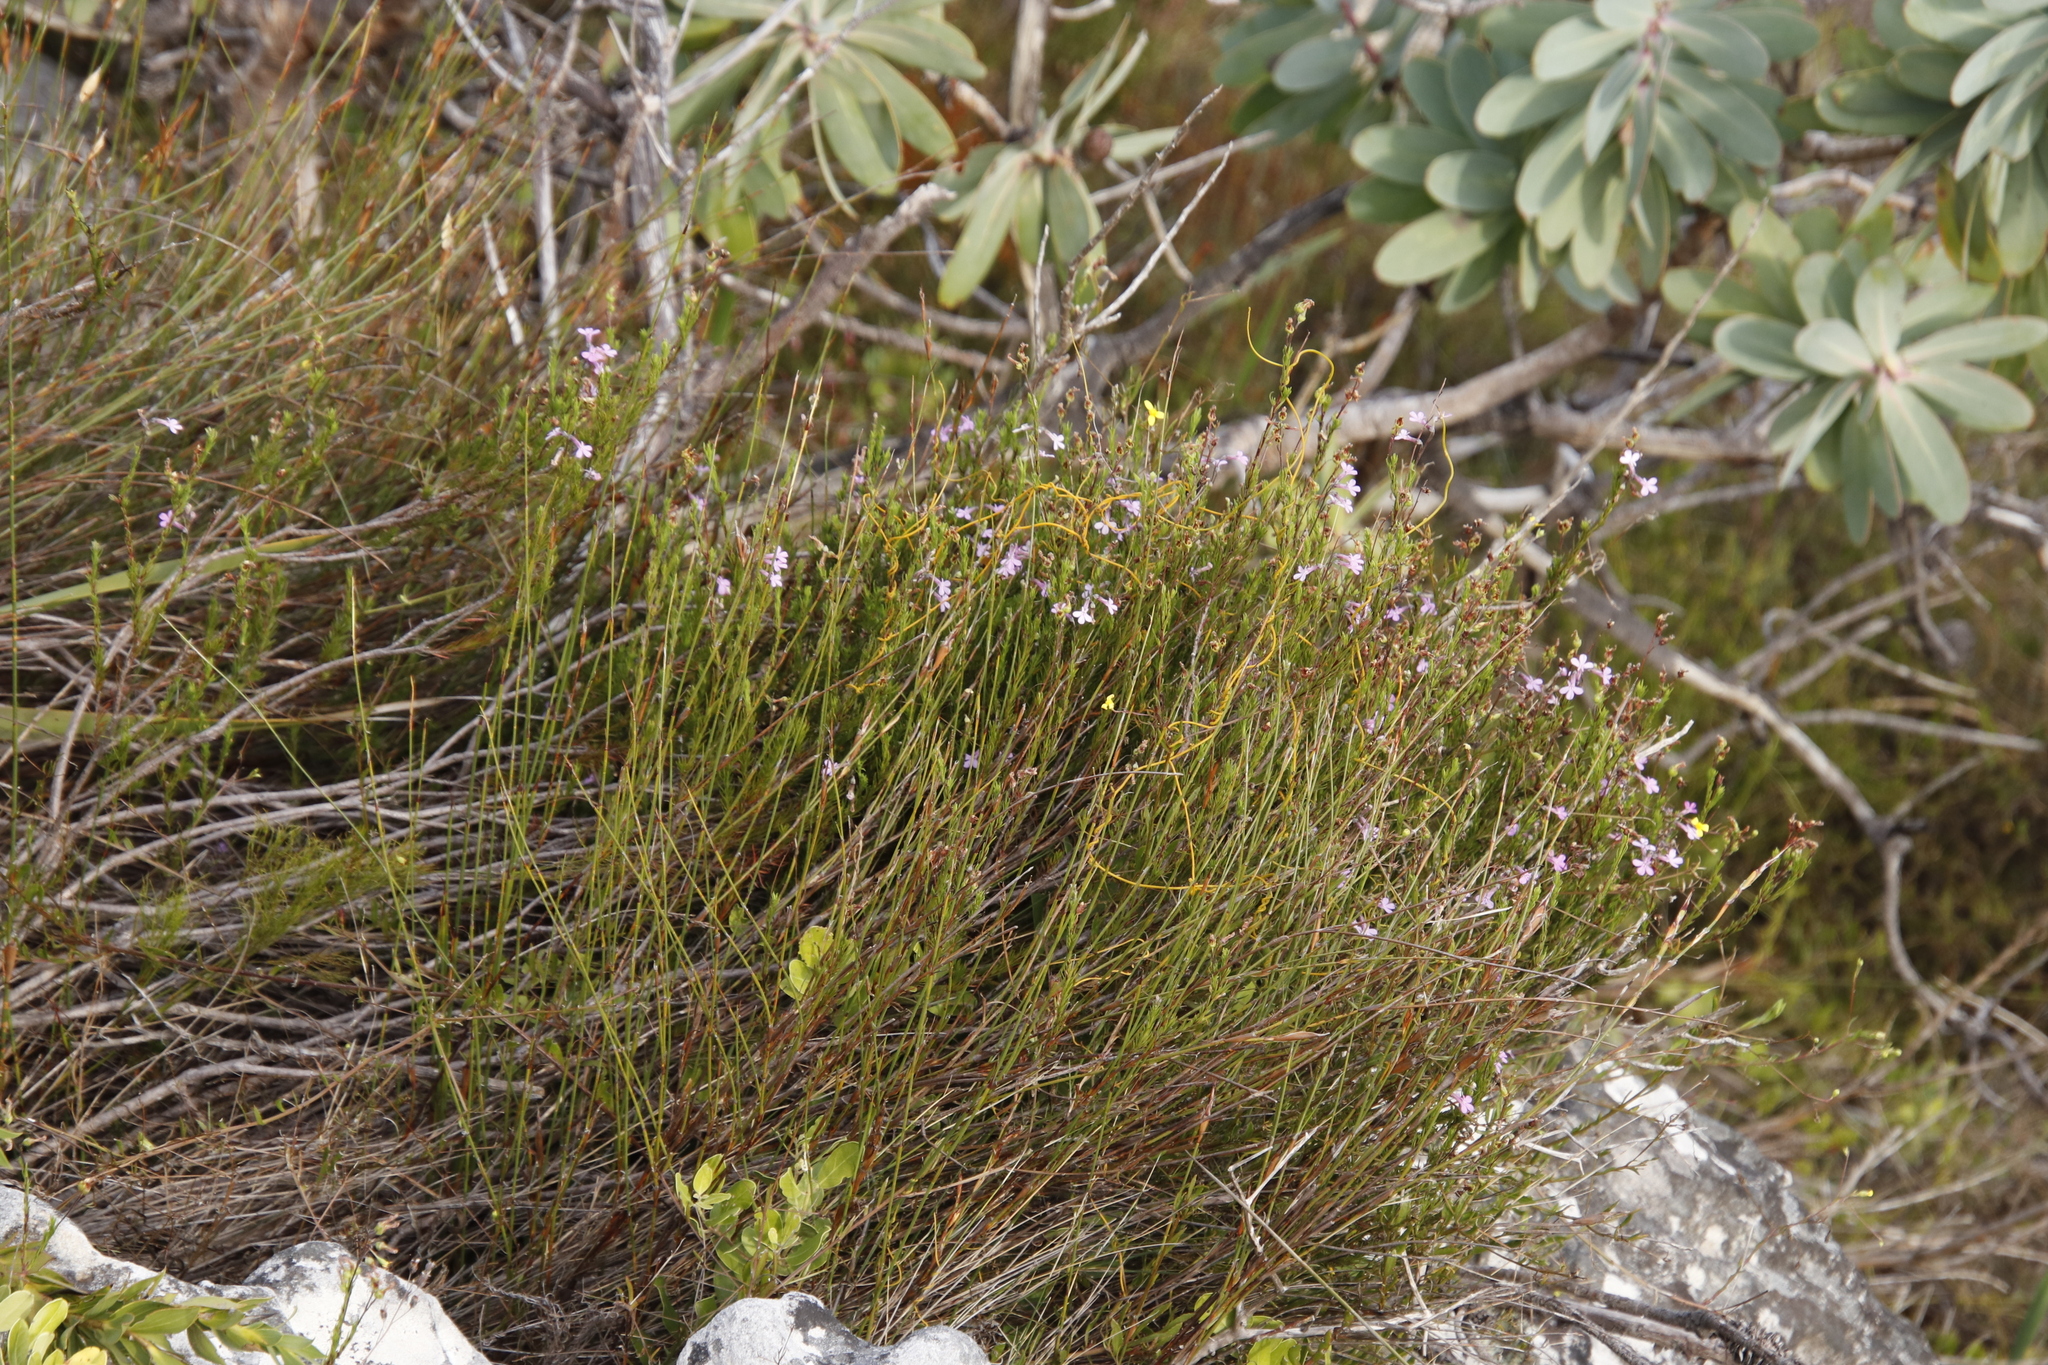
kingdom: Plantae
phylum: Tracheophyta
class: Magnoliopsida
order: Asterales
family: Campanulaceae
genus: Lobelia
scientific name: Lobelia pinifolia
